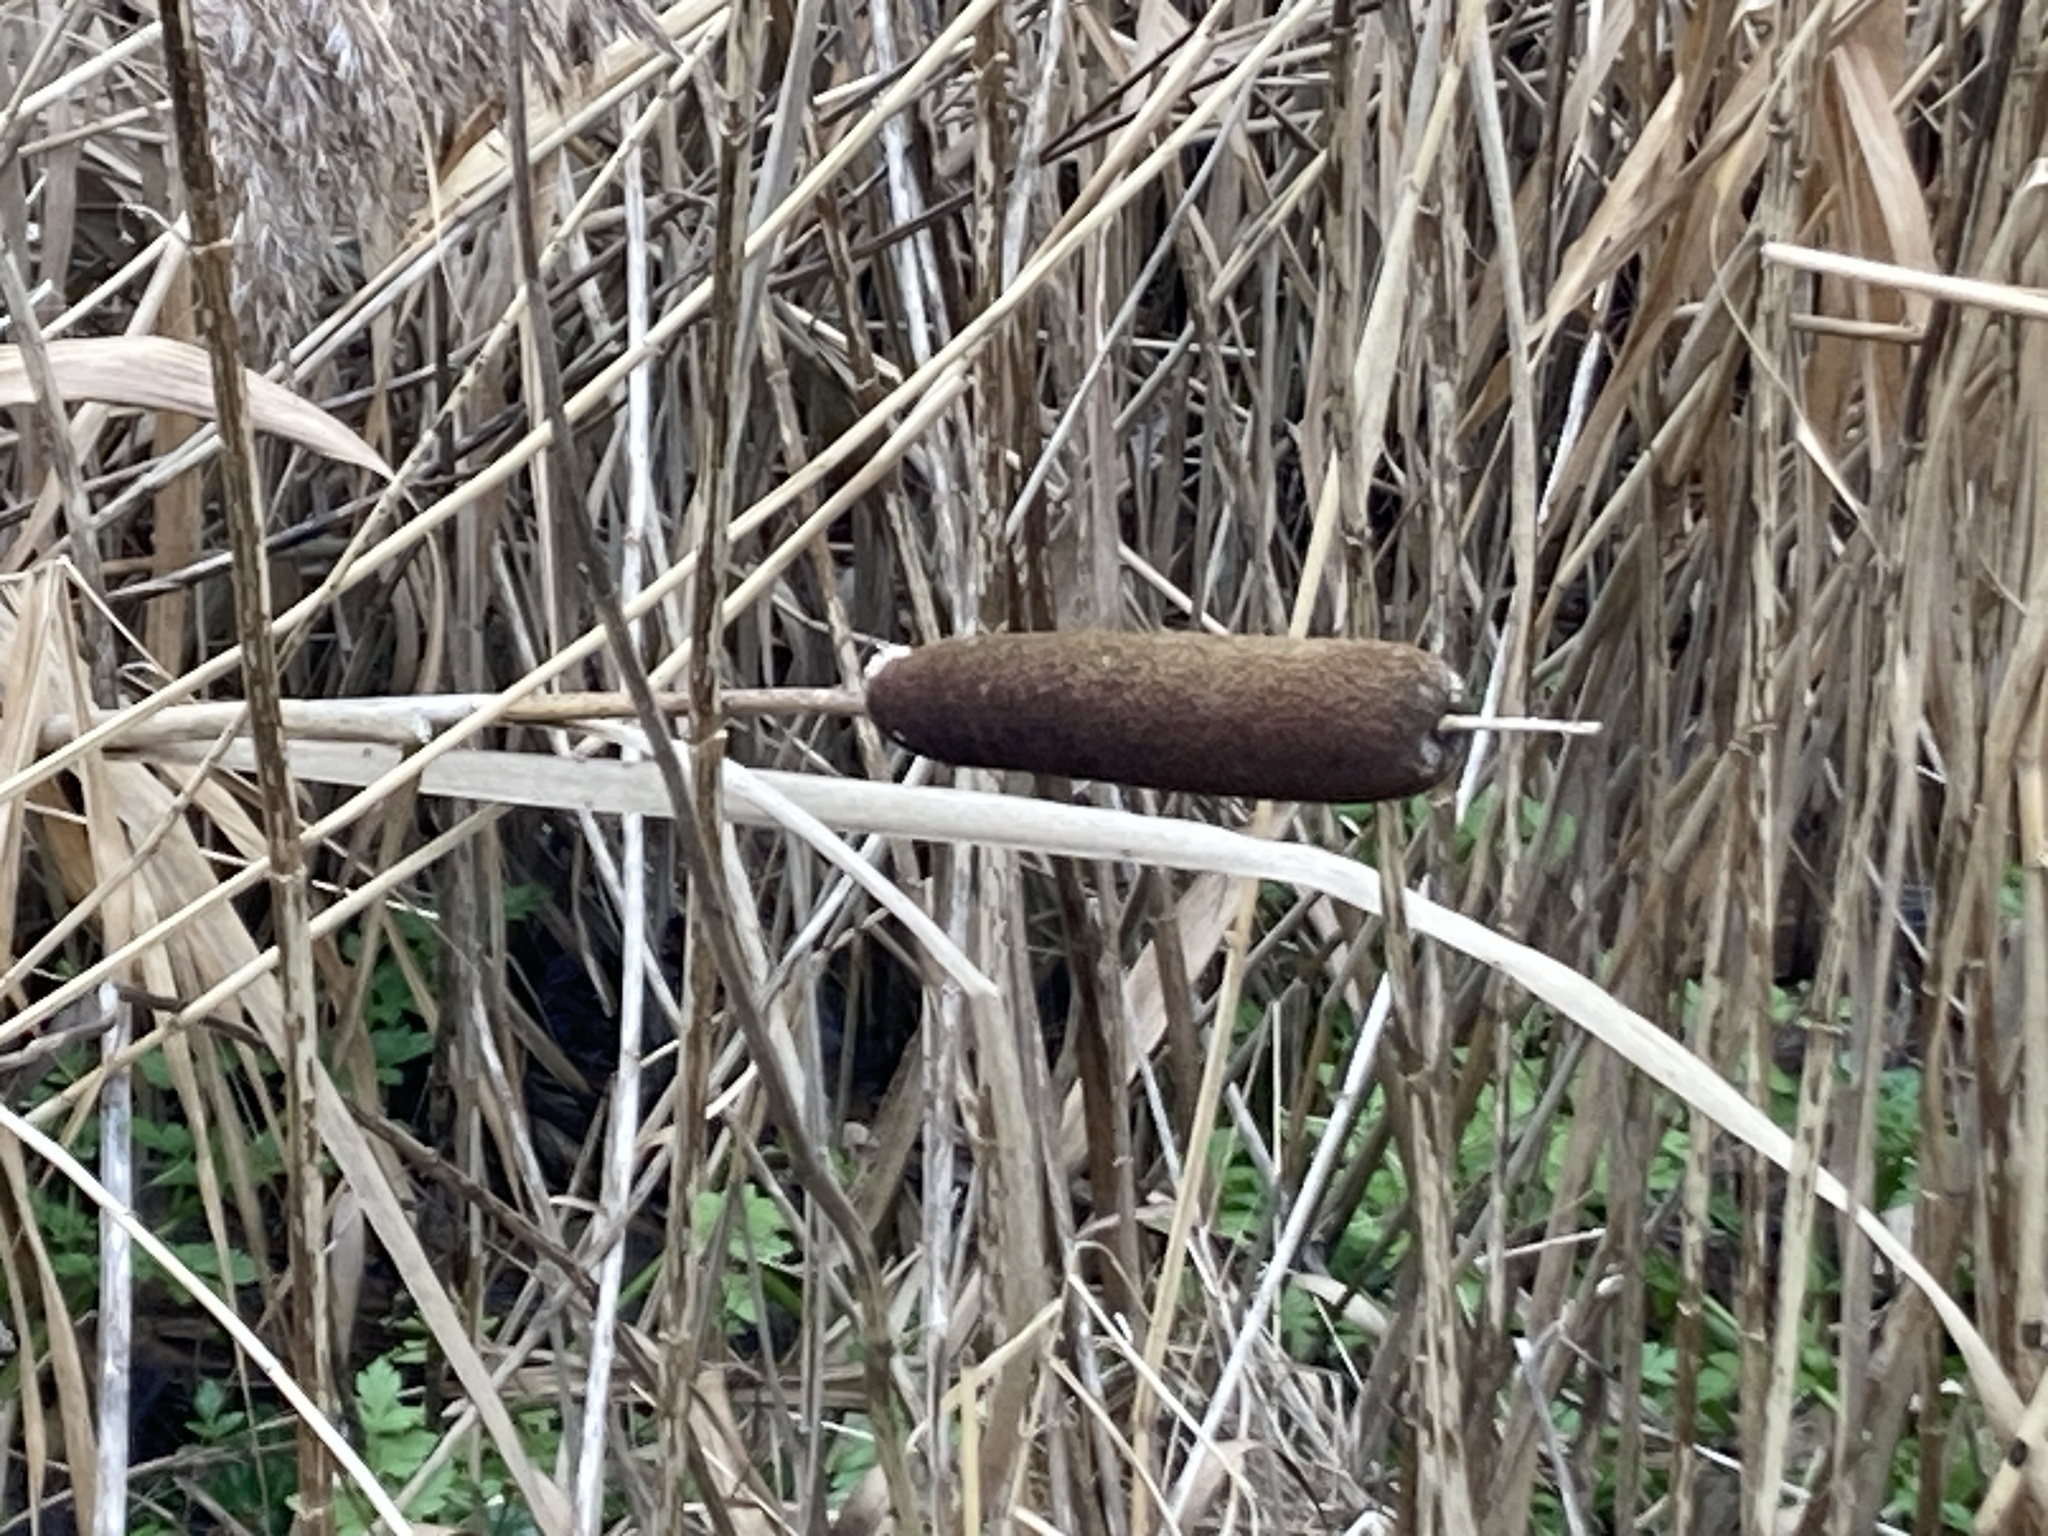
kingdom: Plantae
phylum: Tracheophyta
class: Liliopsida
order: Poales
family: Typhaceae
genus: Typha
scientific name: Typha latifolia
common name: Broadleaf cattail
